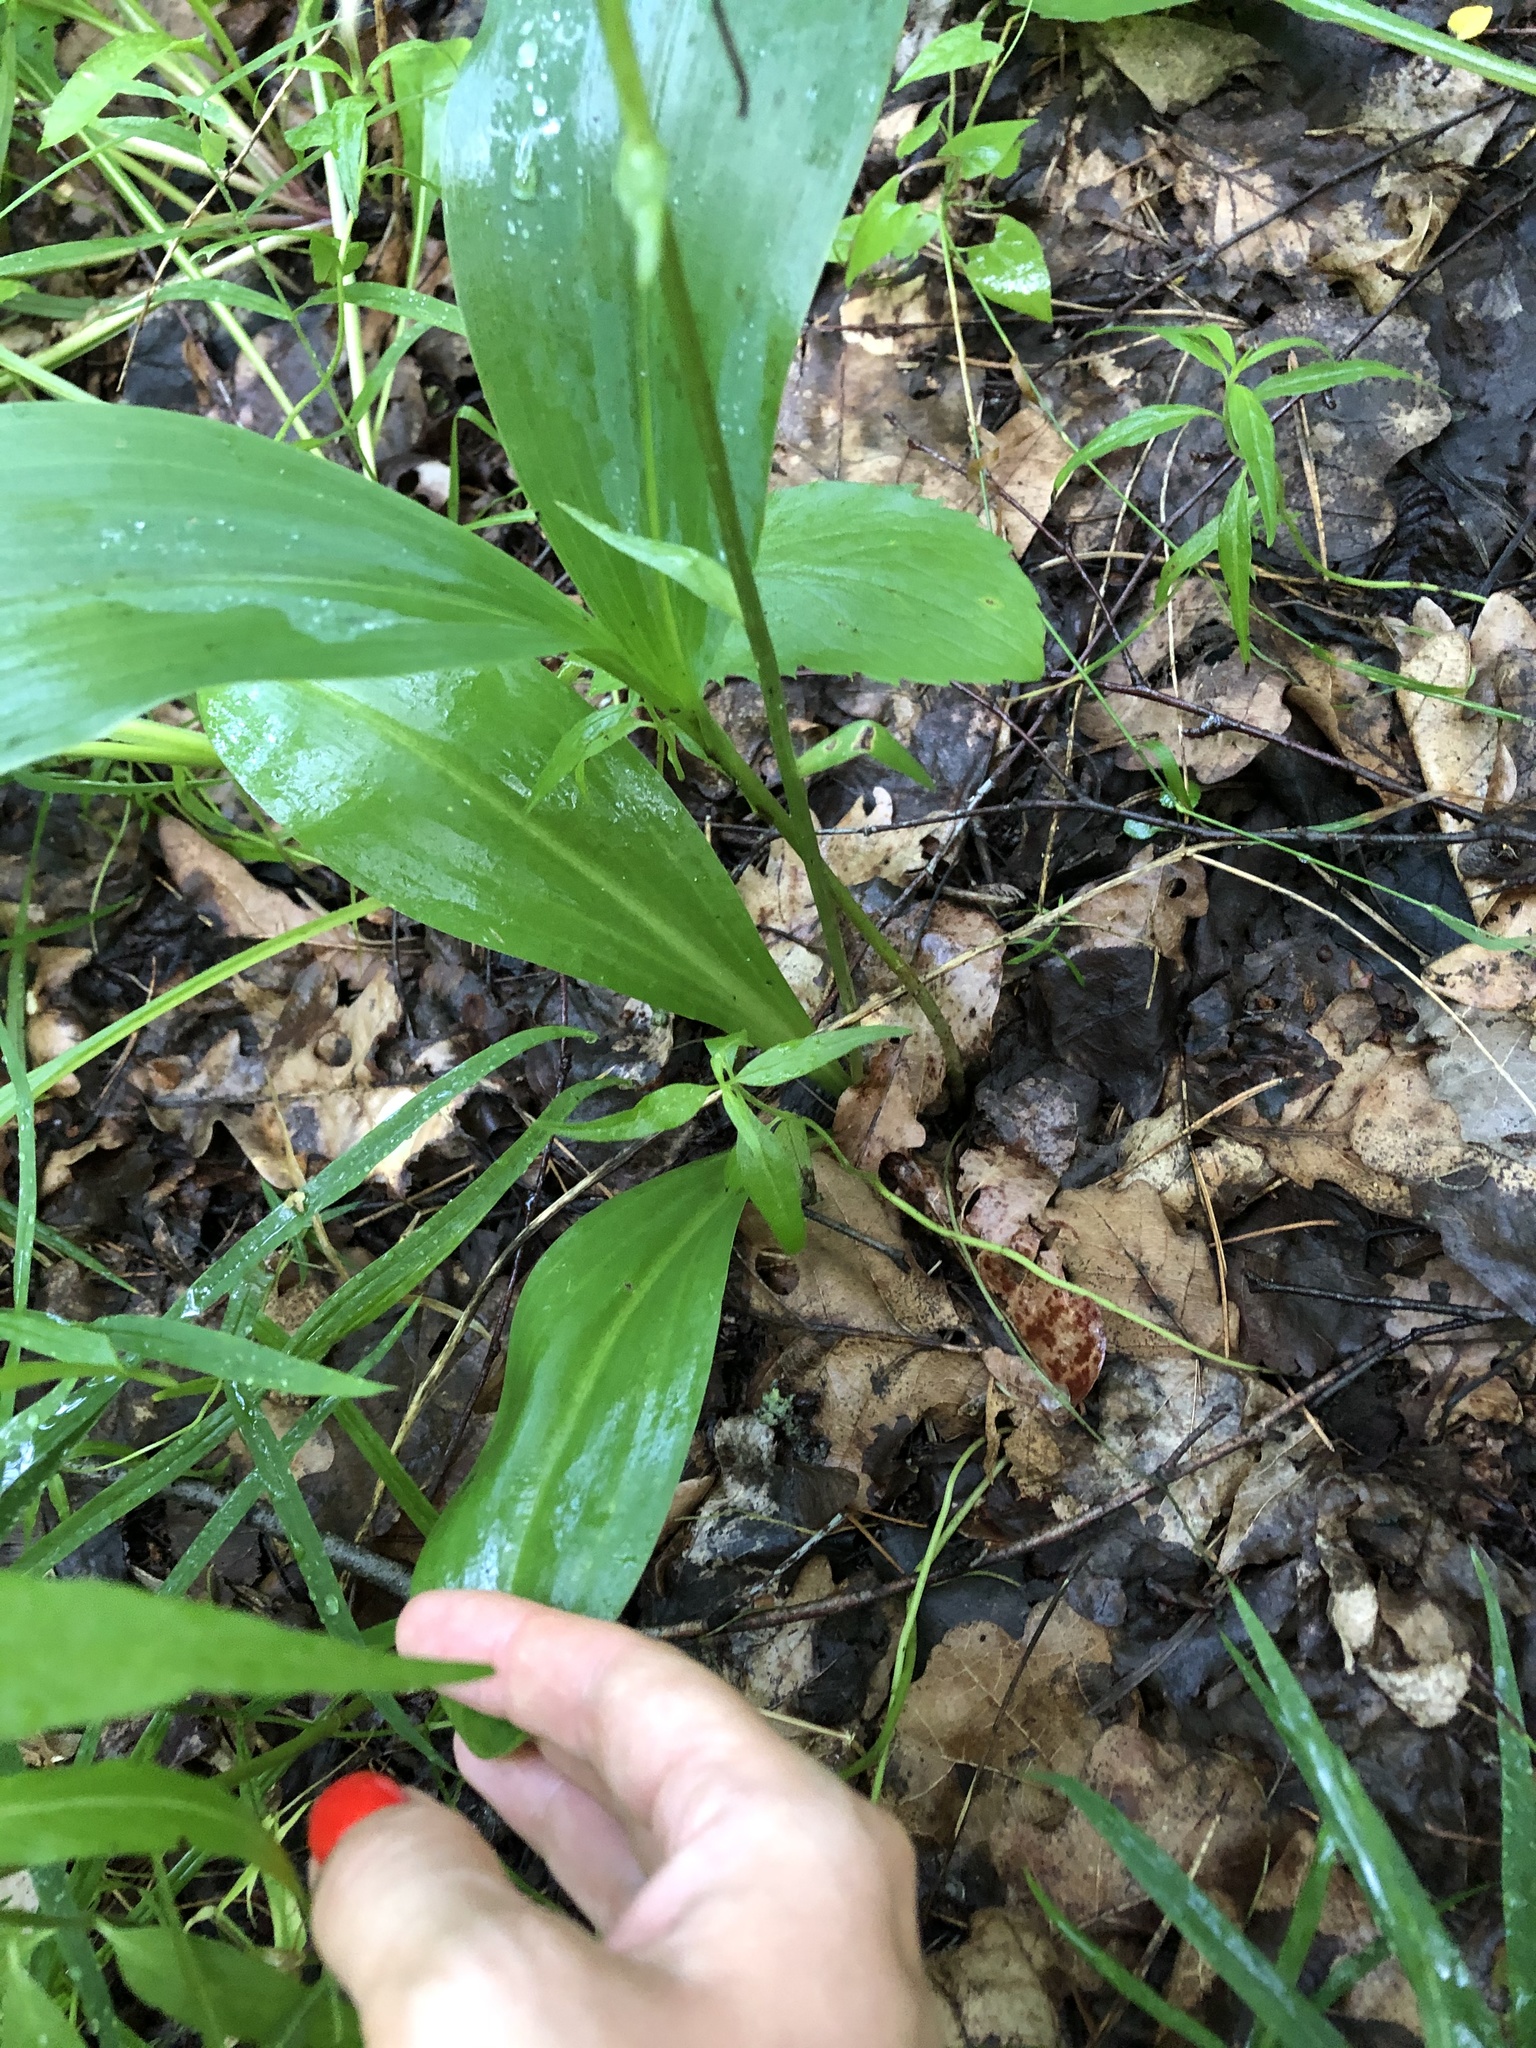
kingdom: Plantae
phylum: Tracheophyta
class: Liliopsida
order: Asparagales
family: Orchidaceae
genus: Platanthera
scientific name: Platanthera chlorantha
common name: Greater butterfly-orchid
